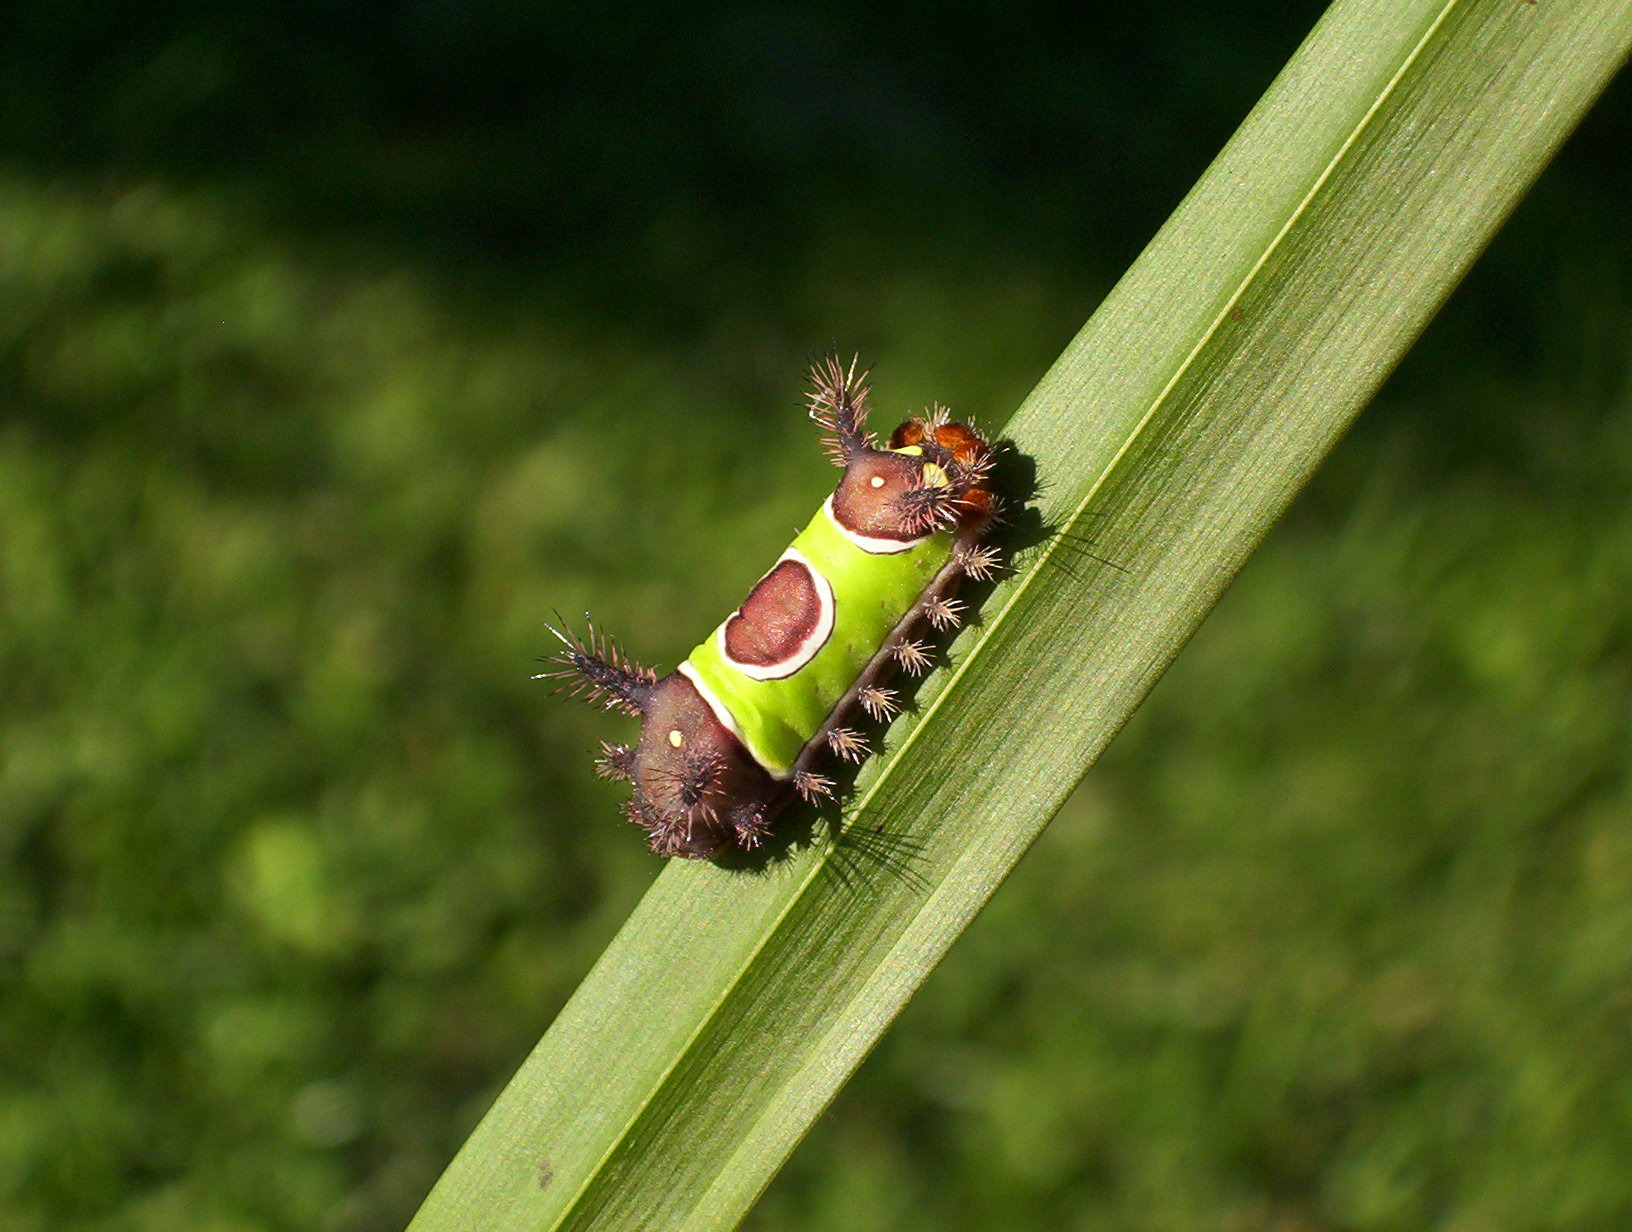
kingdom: Animalia
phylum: Arthropoda
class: Insecta
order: Lepidoptera
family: Limacodidae
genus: Acharia
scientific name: Acharia stimulea
